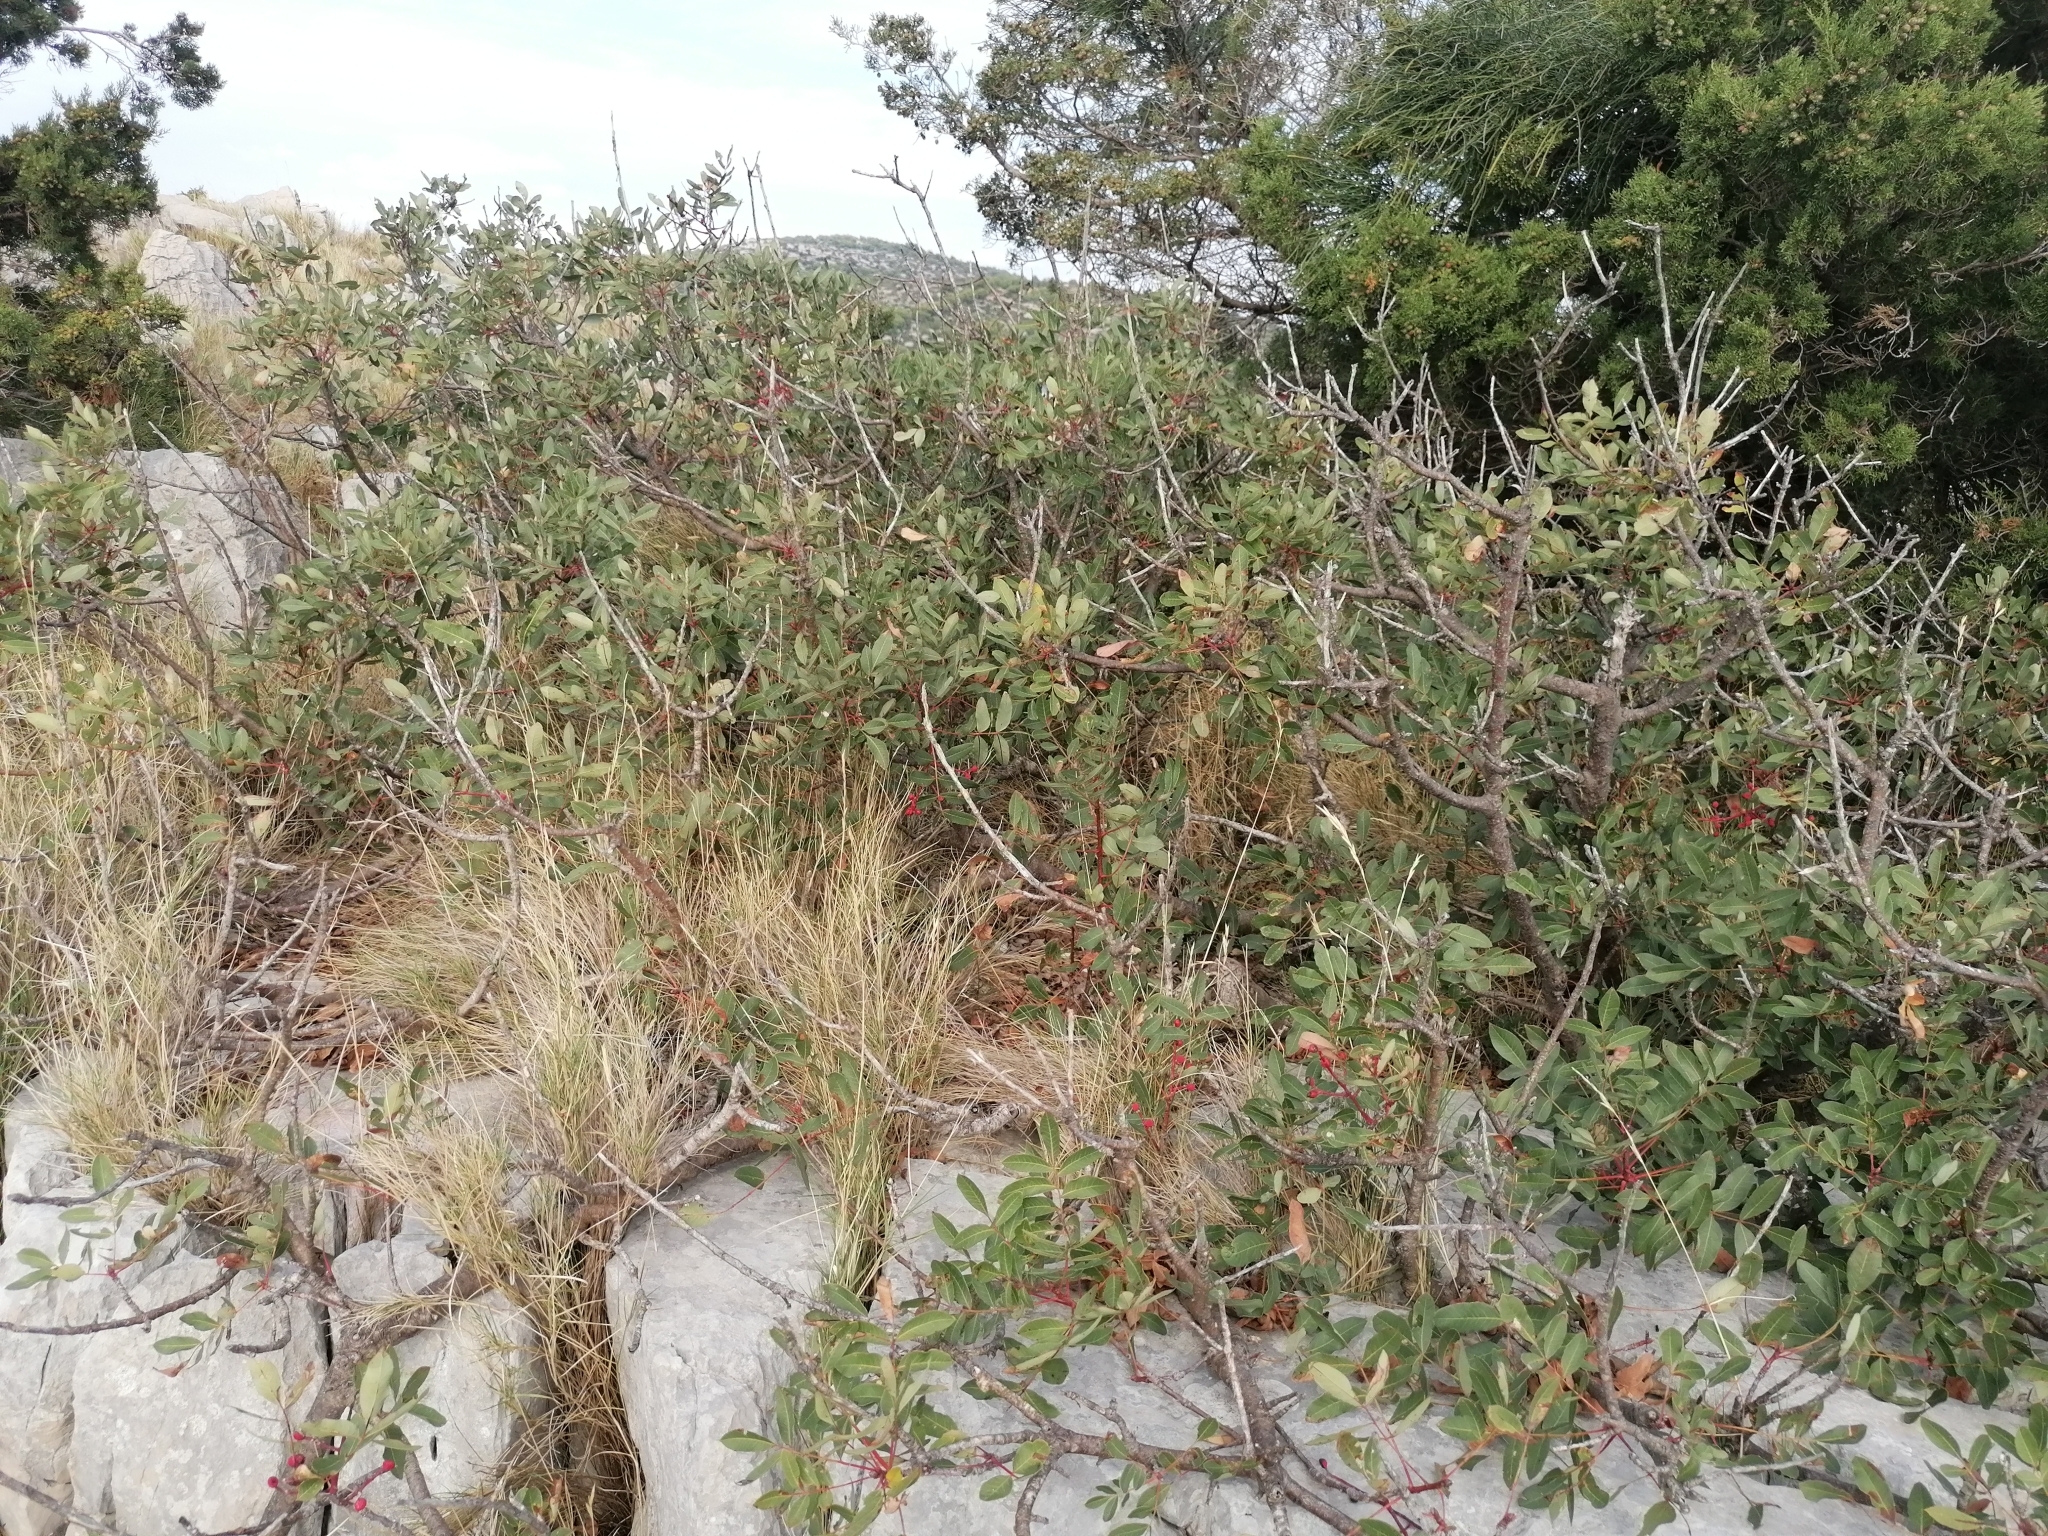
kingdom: Plantae
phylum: Tracheophyta
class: Magnoliopsida
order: Sapindales
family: Anacardiaceae
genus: Pistacia
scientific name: Pistacia terebinthus
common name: Terebinth
